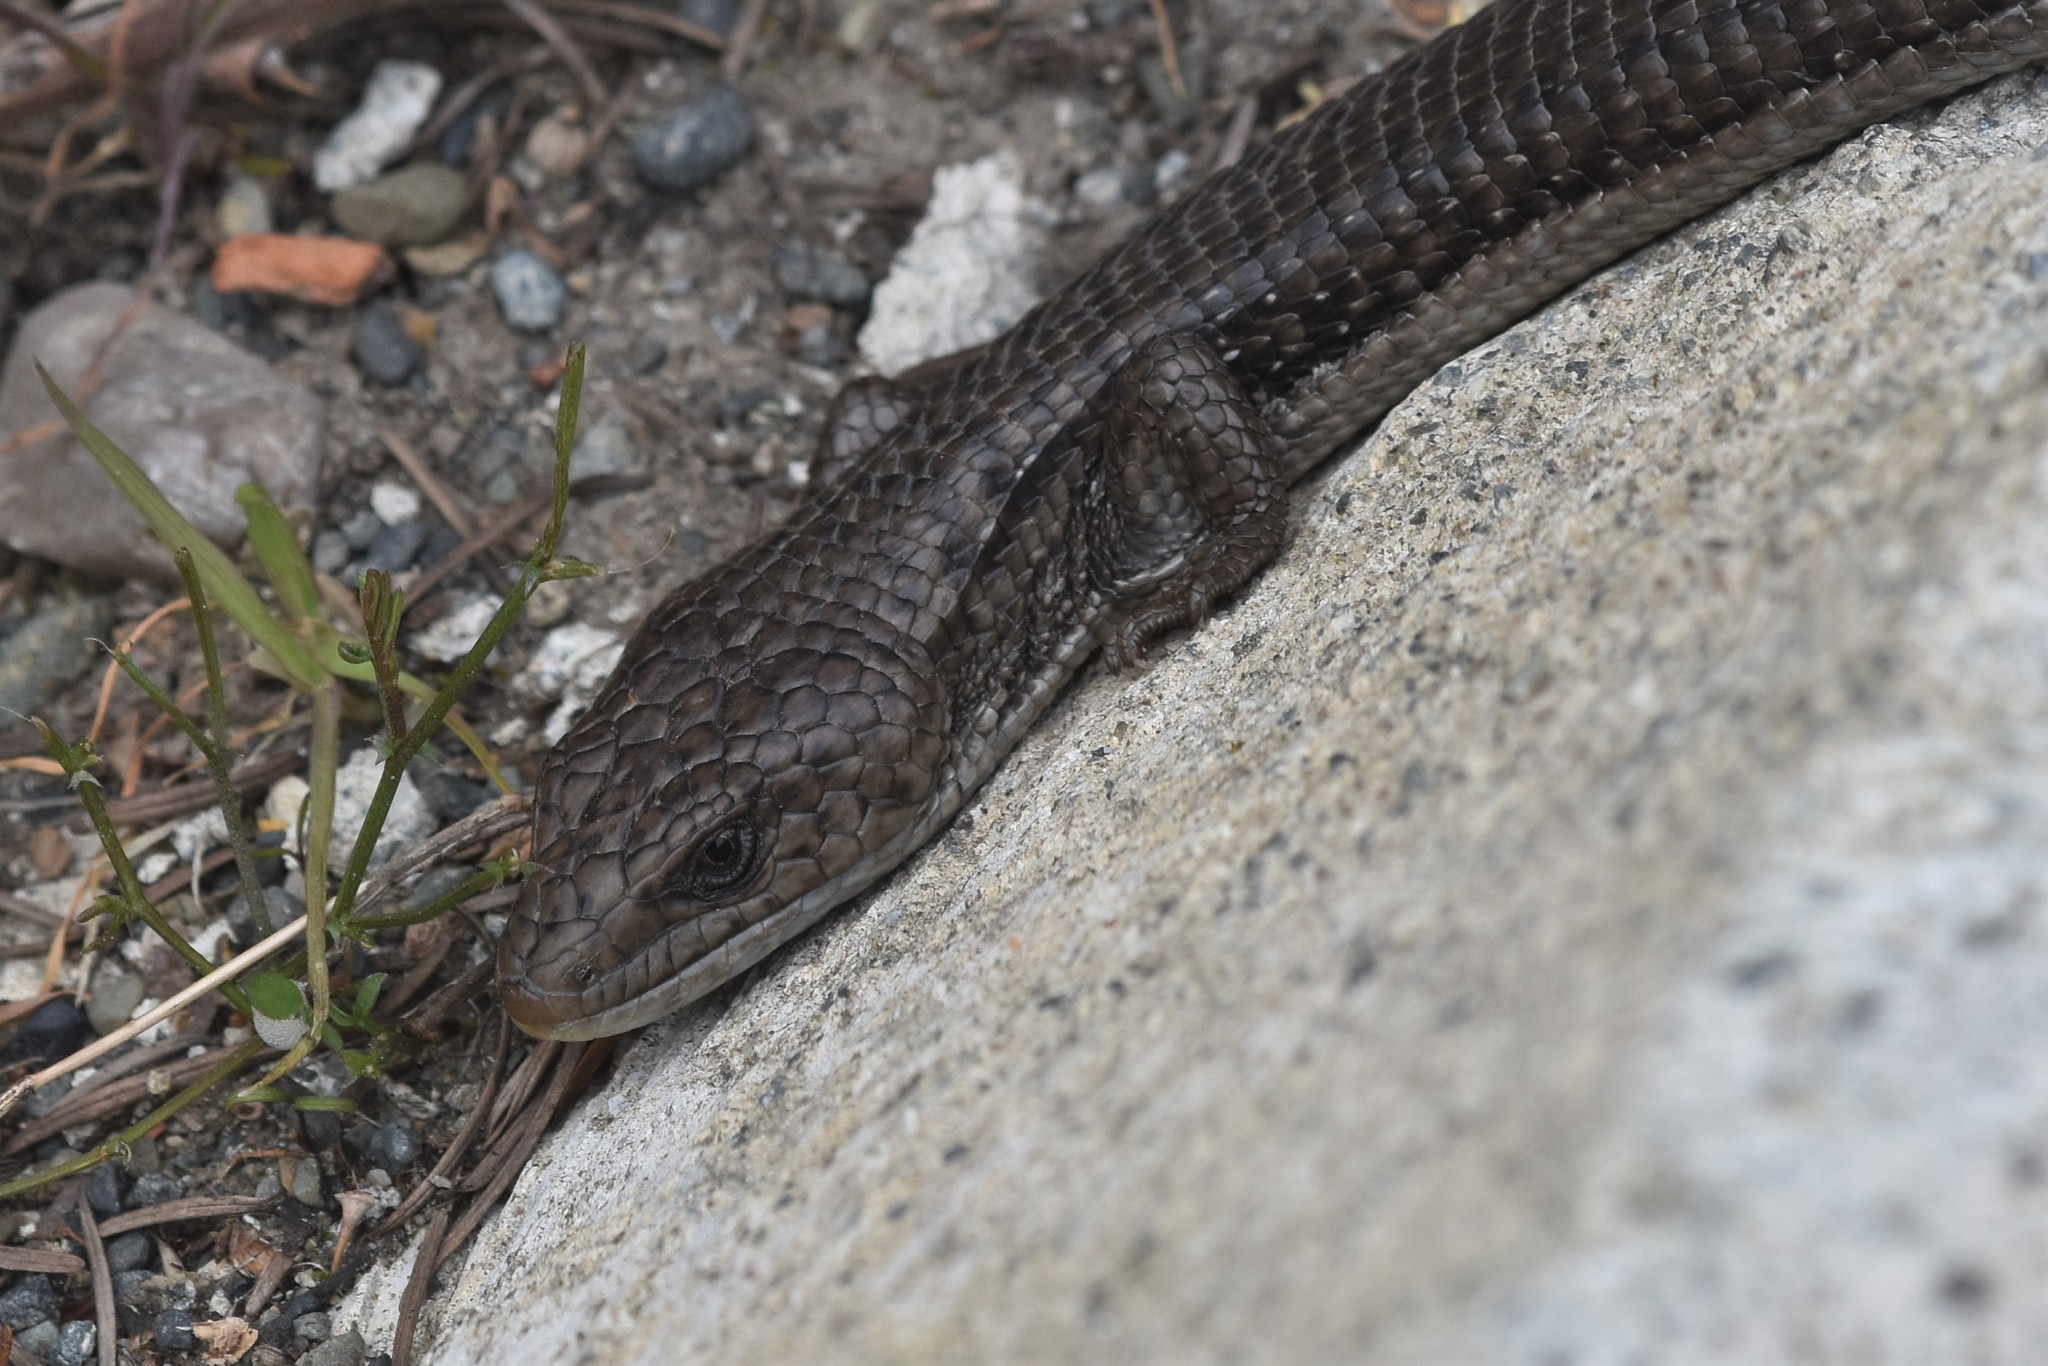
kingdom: Animalia
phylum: Chordata
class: Squamata
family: Anguidae
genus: Elgaria
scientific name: Elgaria coerulea
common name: Northern alligator lizard
